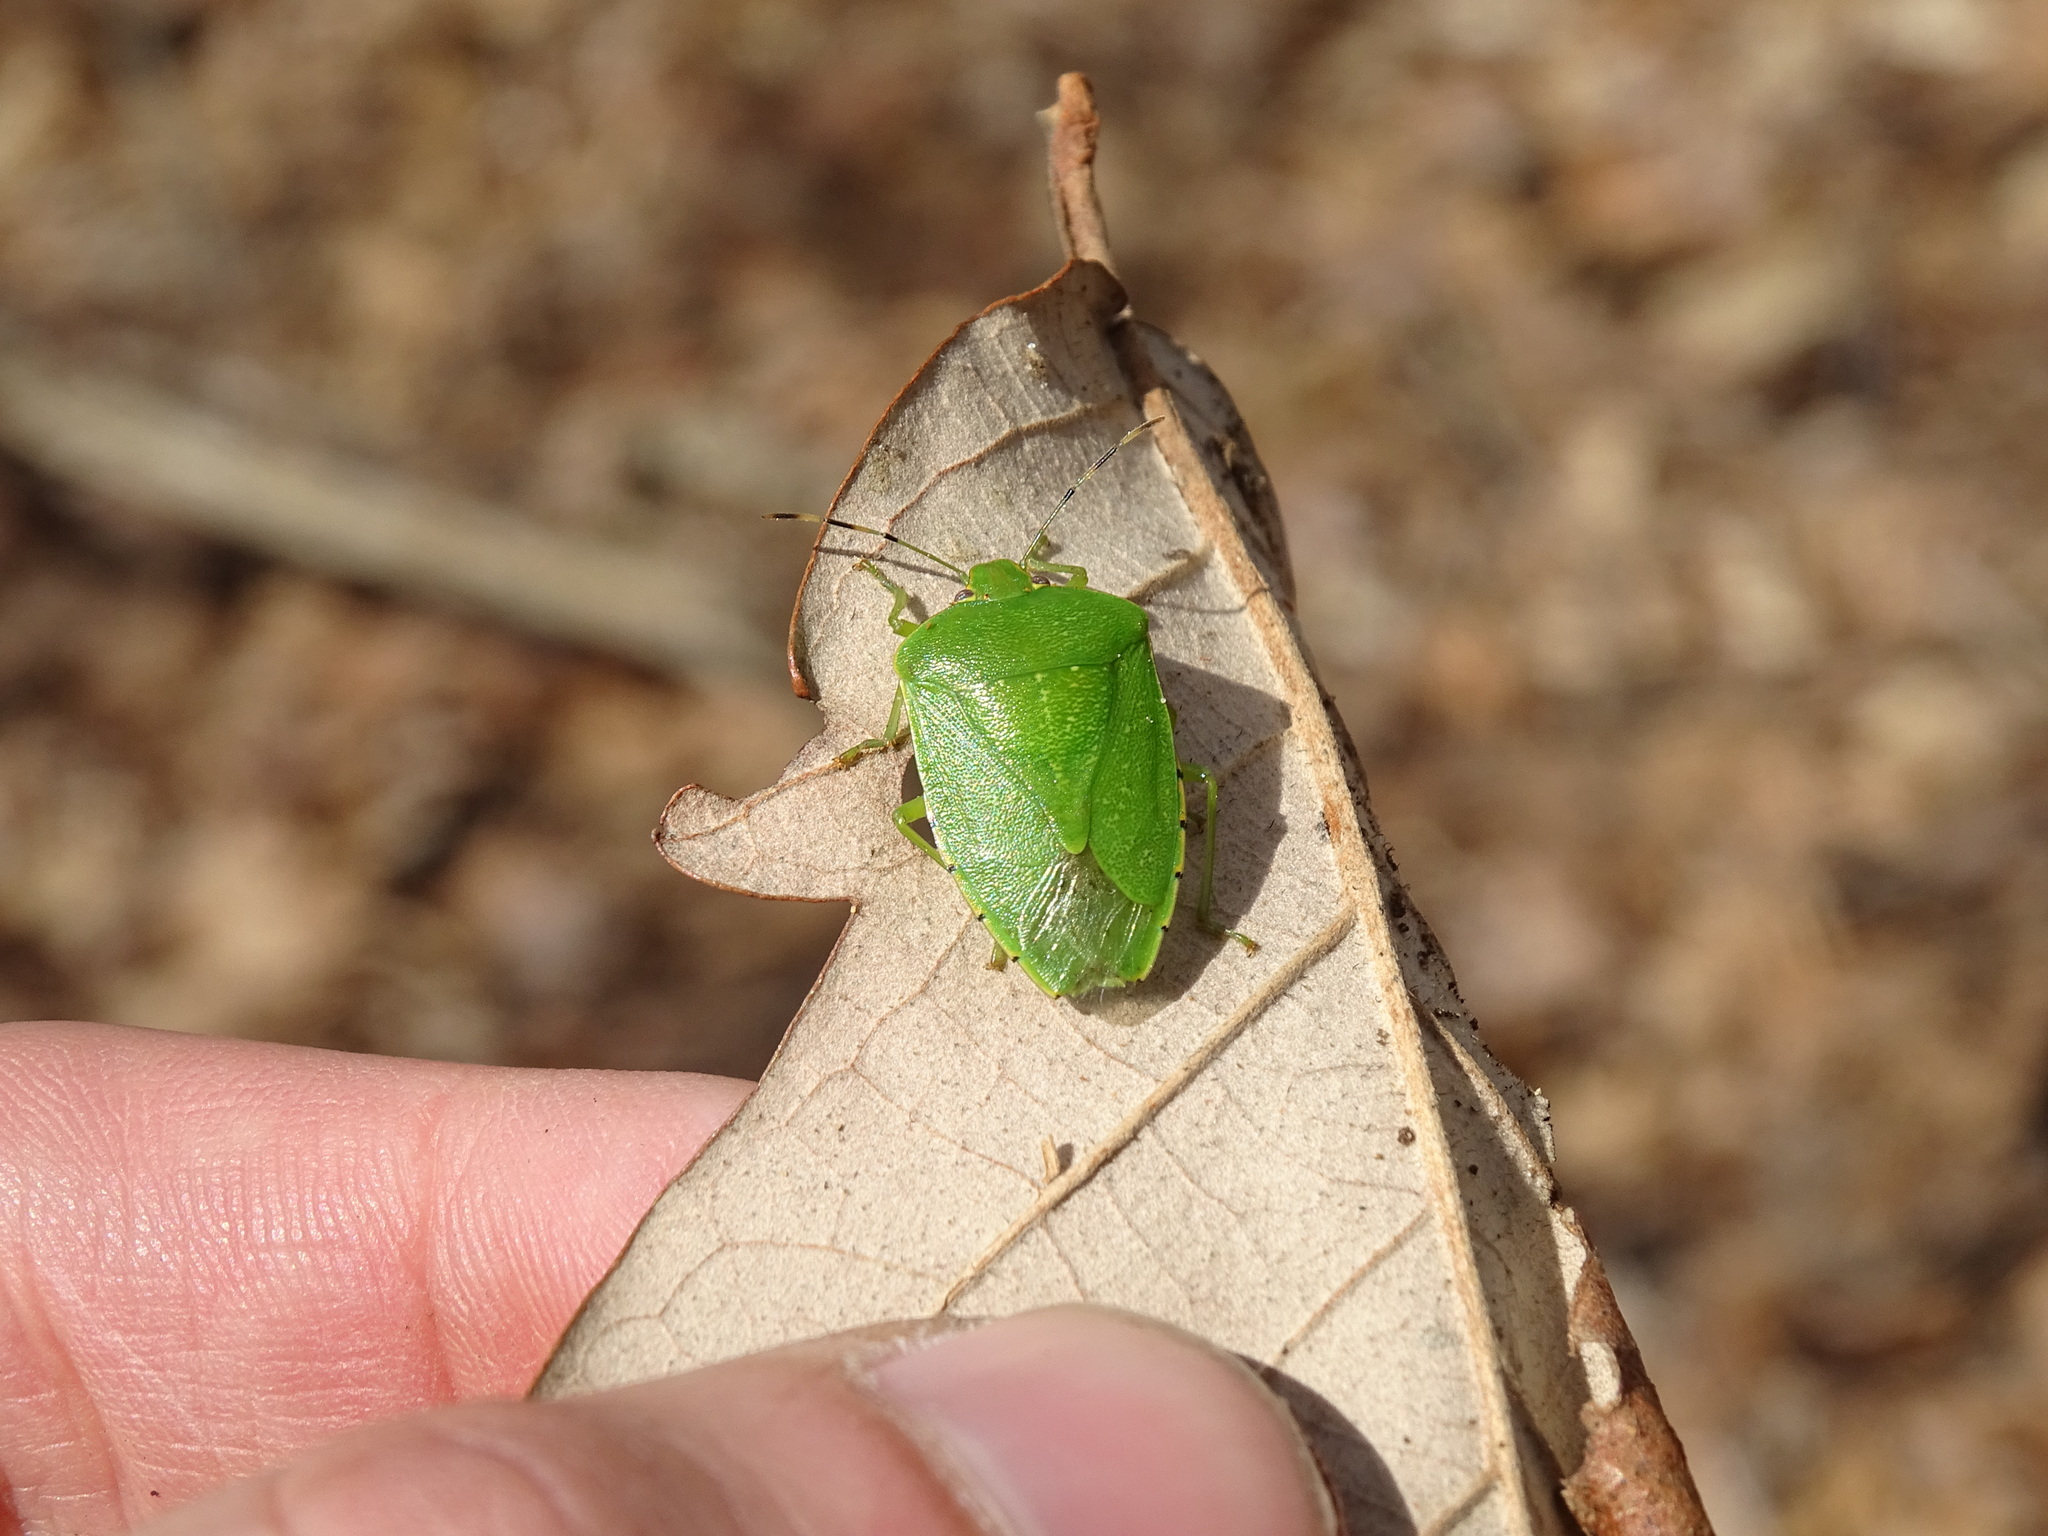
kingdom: Animalia
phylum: Arthropoda
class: Insecta
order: Hemiptera
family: Pentatomidae
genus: Chinavia
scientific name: Chinavia hilaris
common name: Green stink bug
